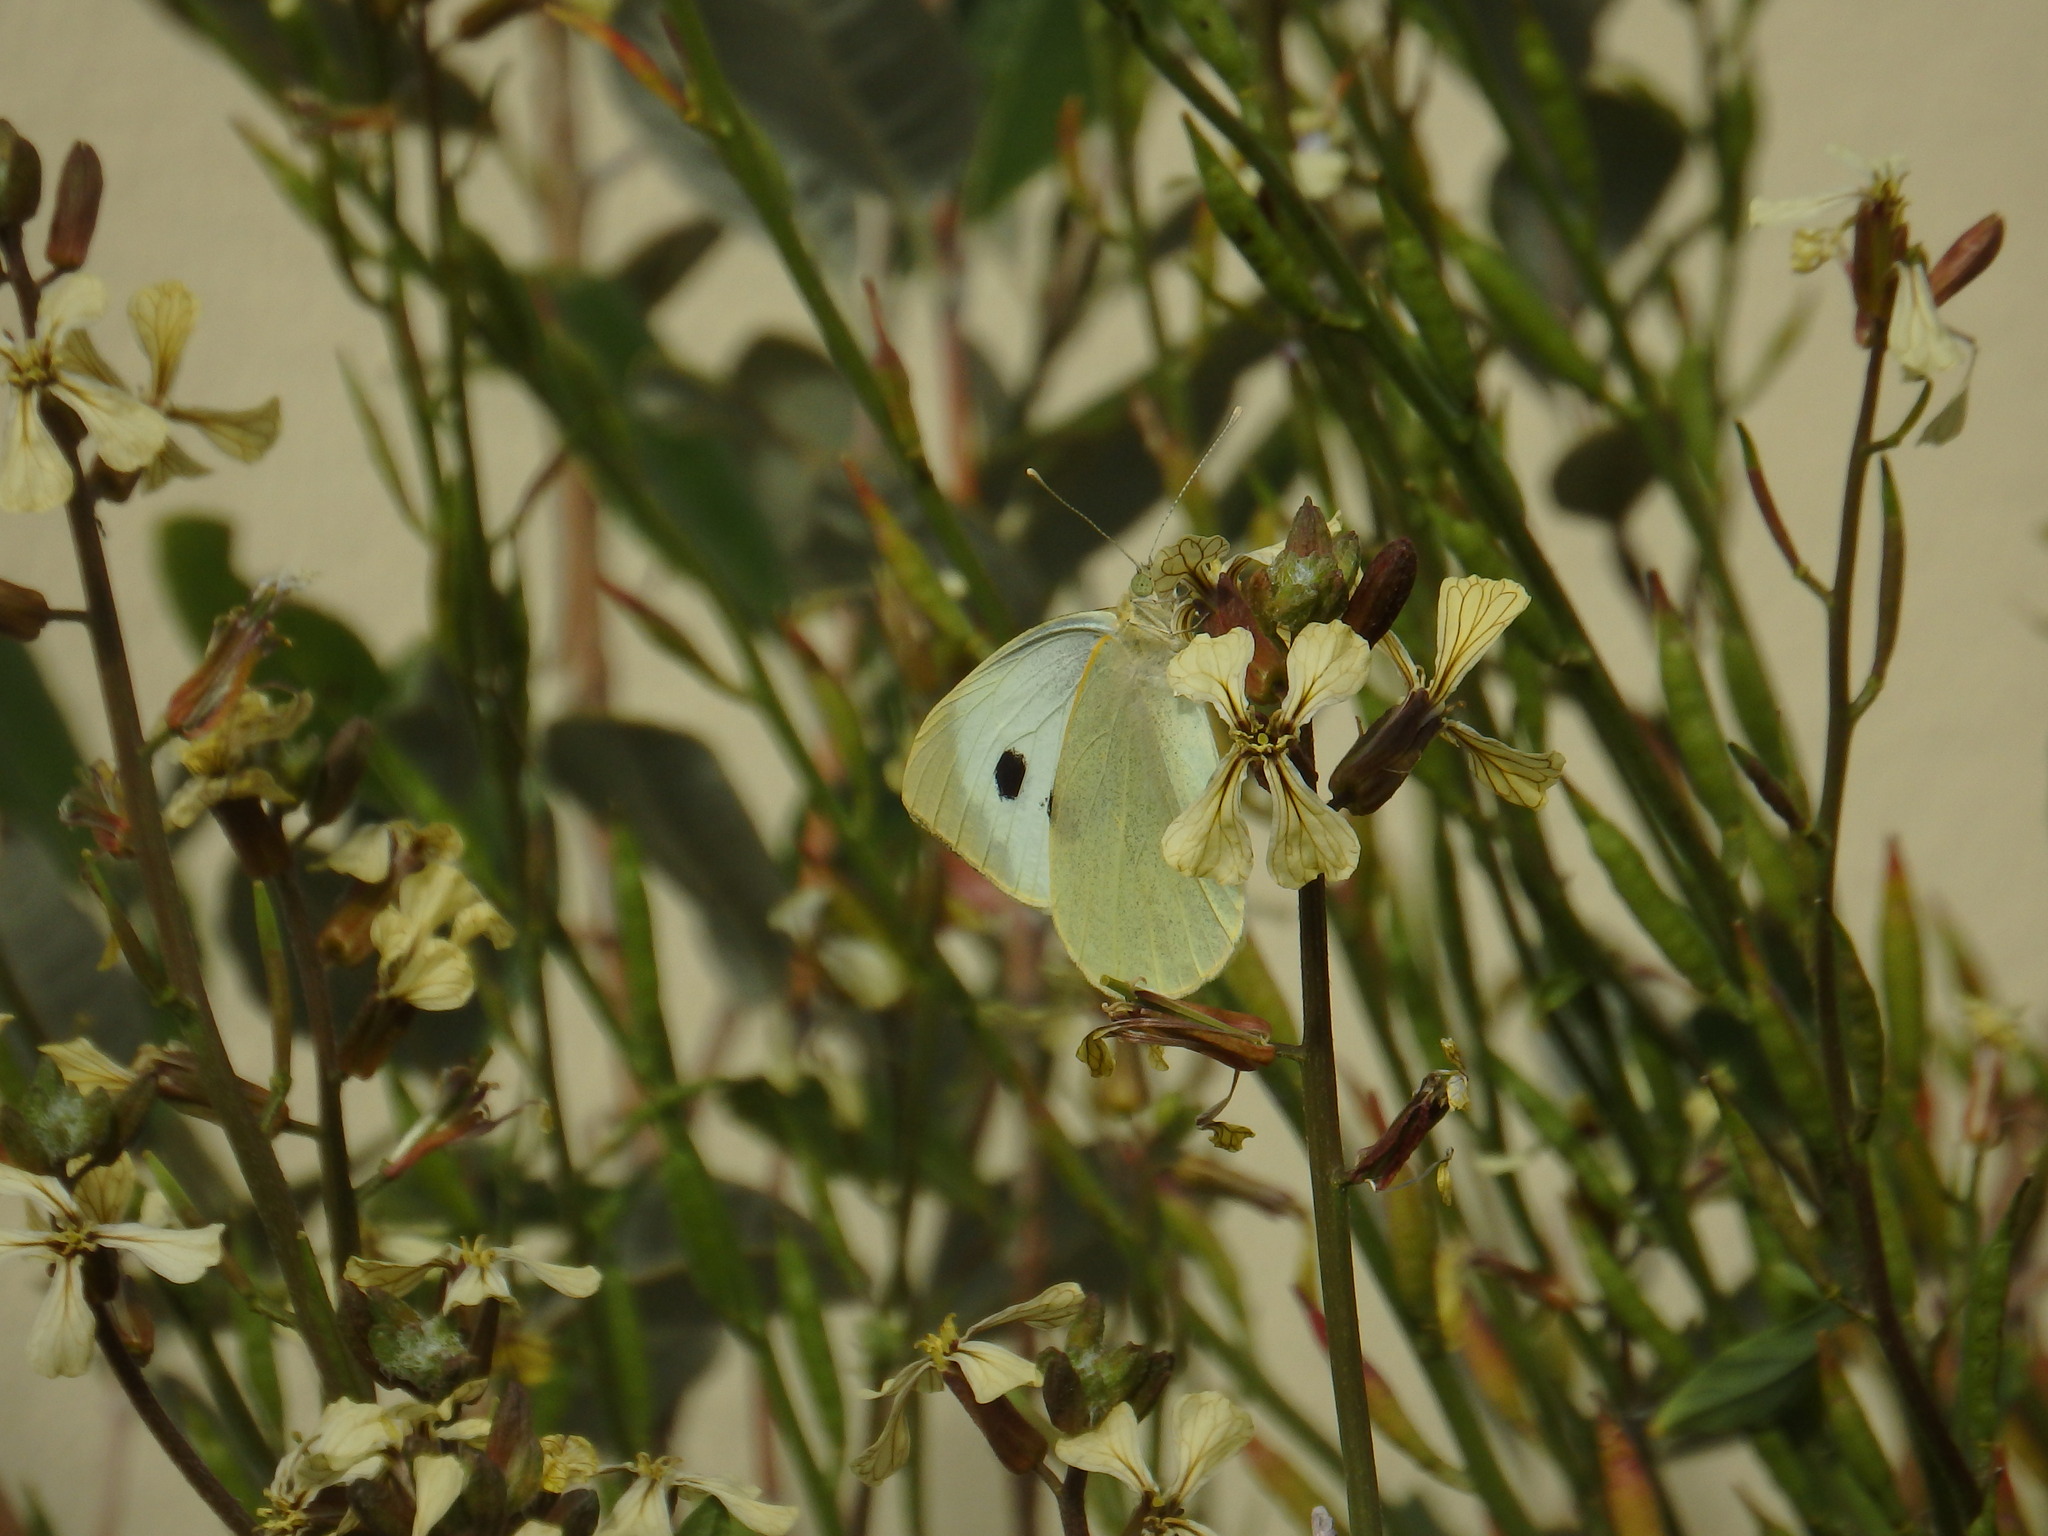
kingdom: Animalia
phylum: Arthropoda
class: Insecta
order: Lepidoptera
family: Pieridae
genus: Pieris
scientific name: Pieris brassicae
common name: Large white
